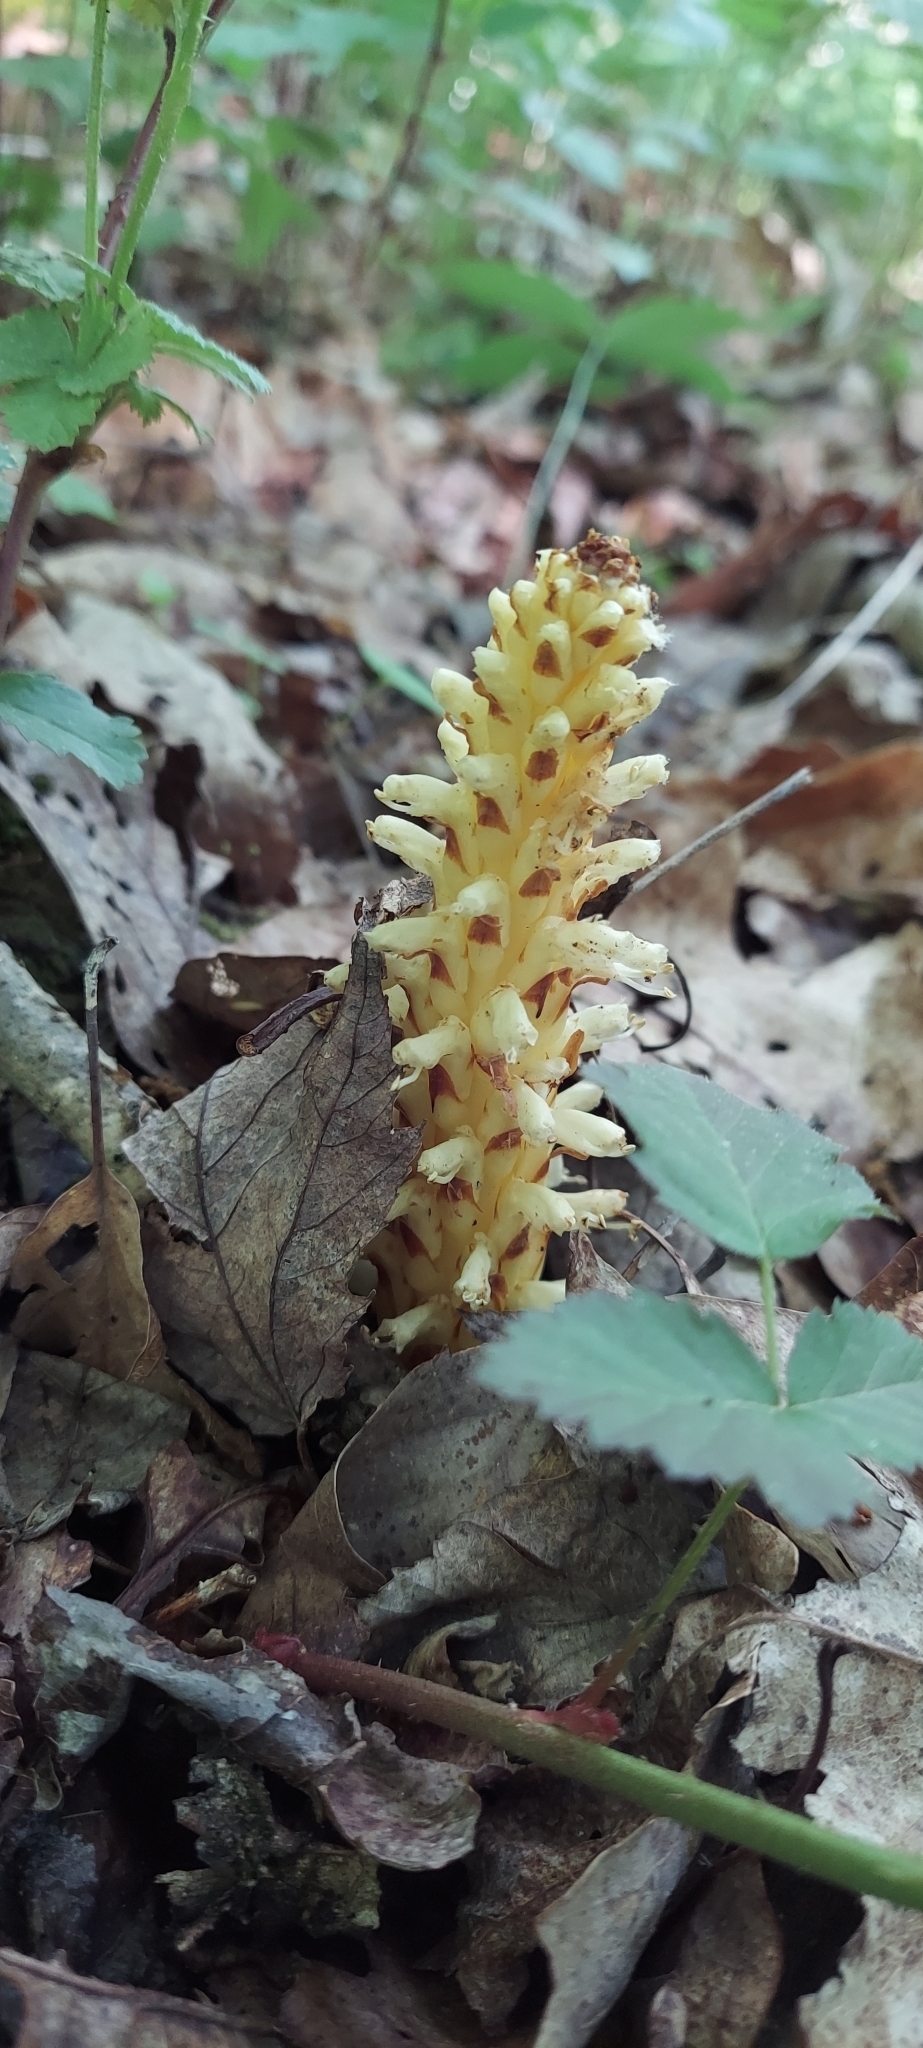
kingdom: Plantae
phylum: Tracheophyta
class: Magnoliopsida
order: Lamiales
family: Orobanchaceae
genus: Conopholis
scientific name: Conopholis americana
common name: American cancer-root
